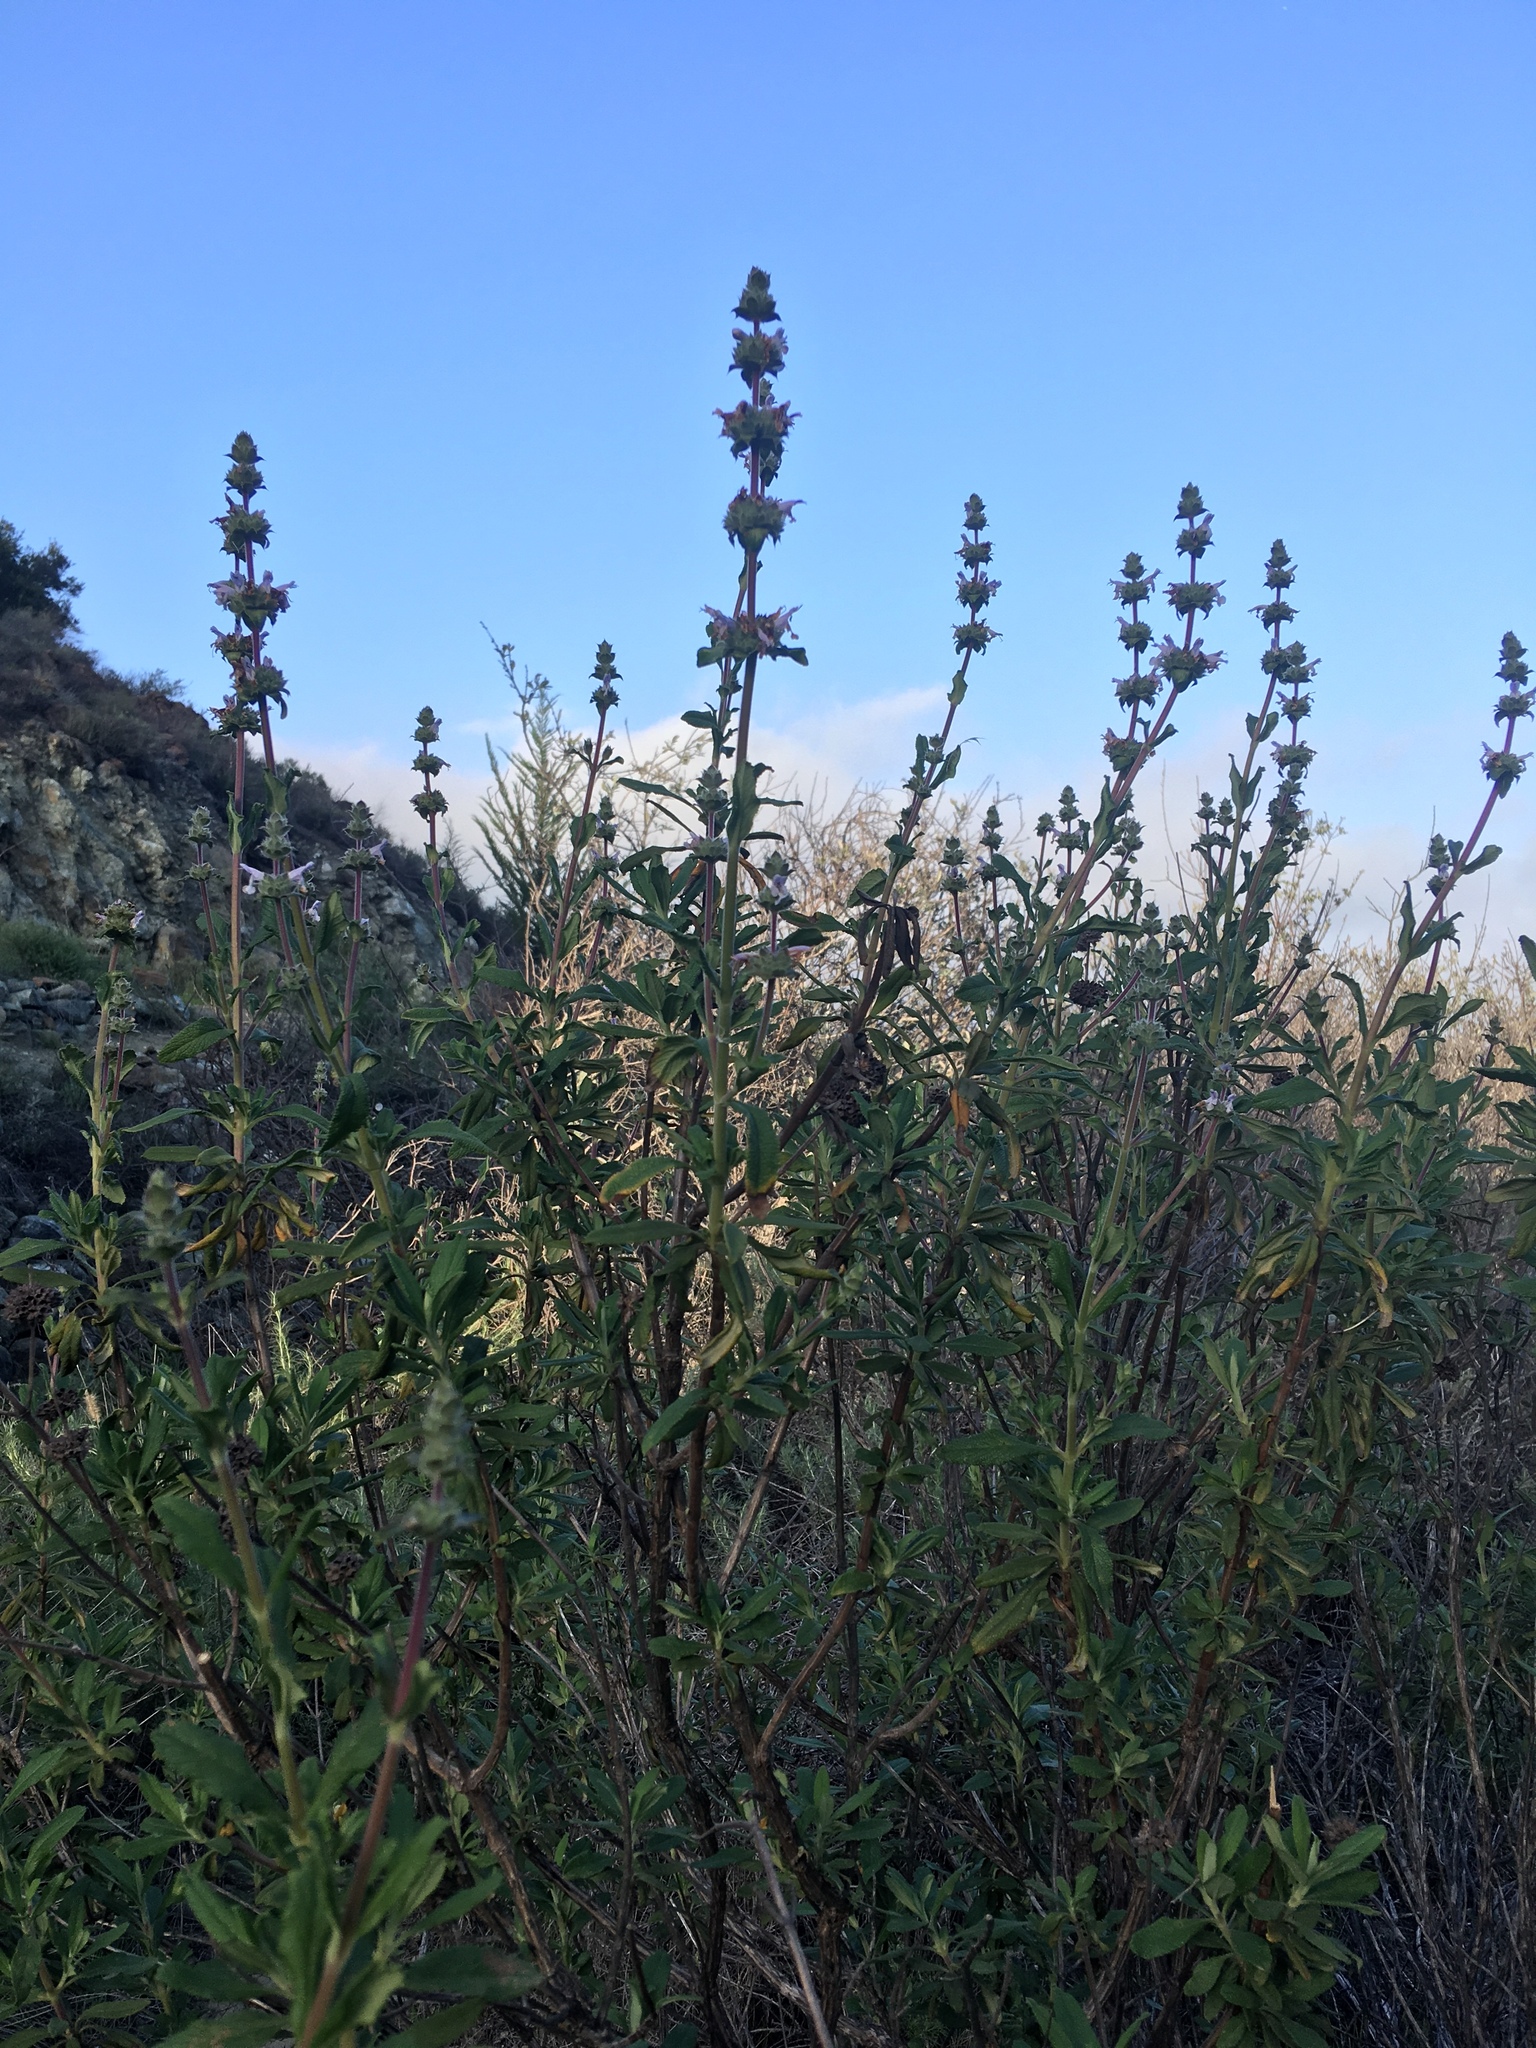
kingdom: Plantae
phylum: Tracheophyta
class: Magnoliopsida
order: Lamiales
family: Lamiaceae
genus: Salvia
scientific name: Salvia mellifera
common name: Black sage
